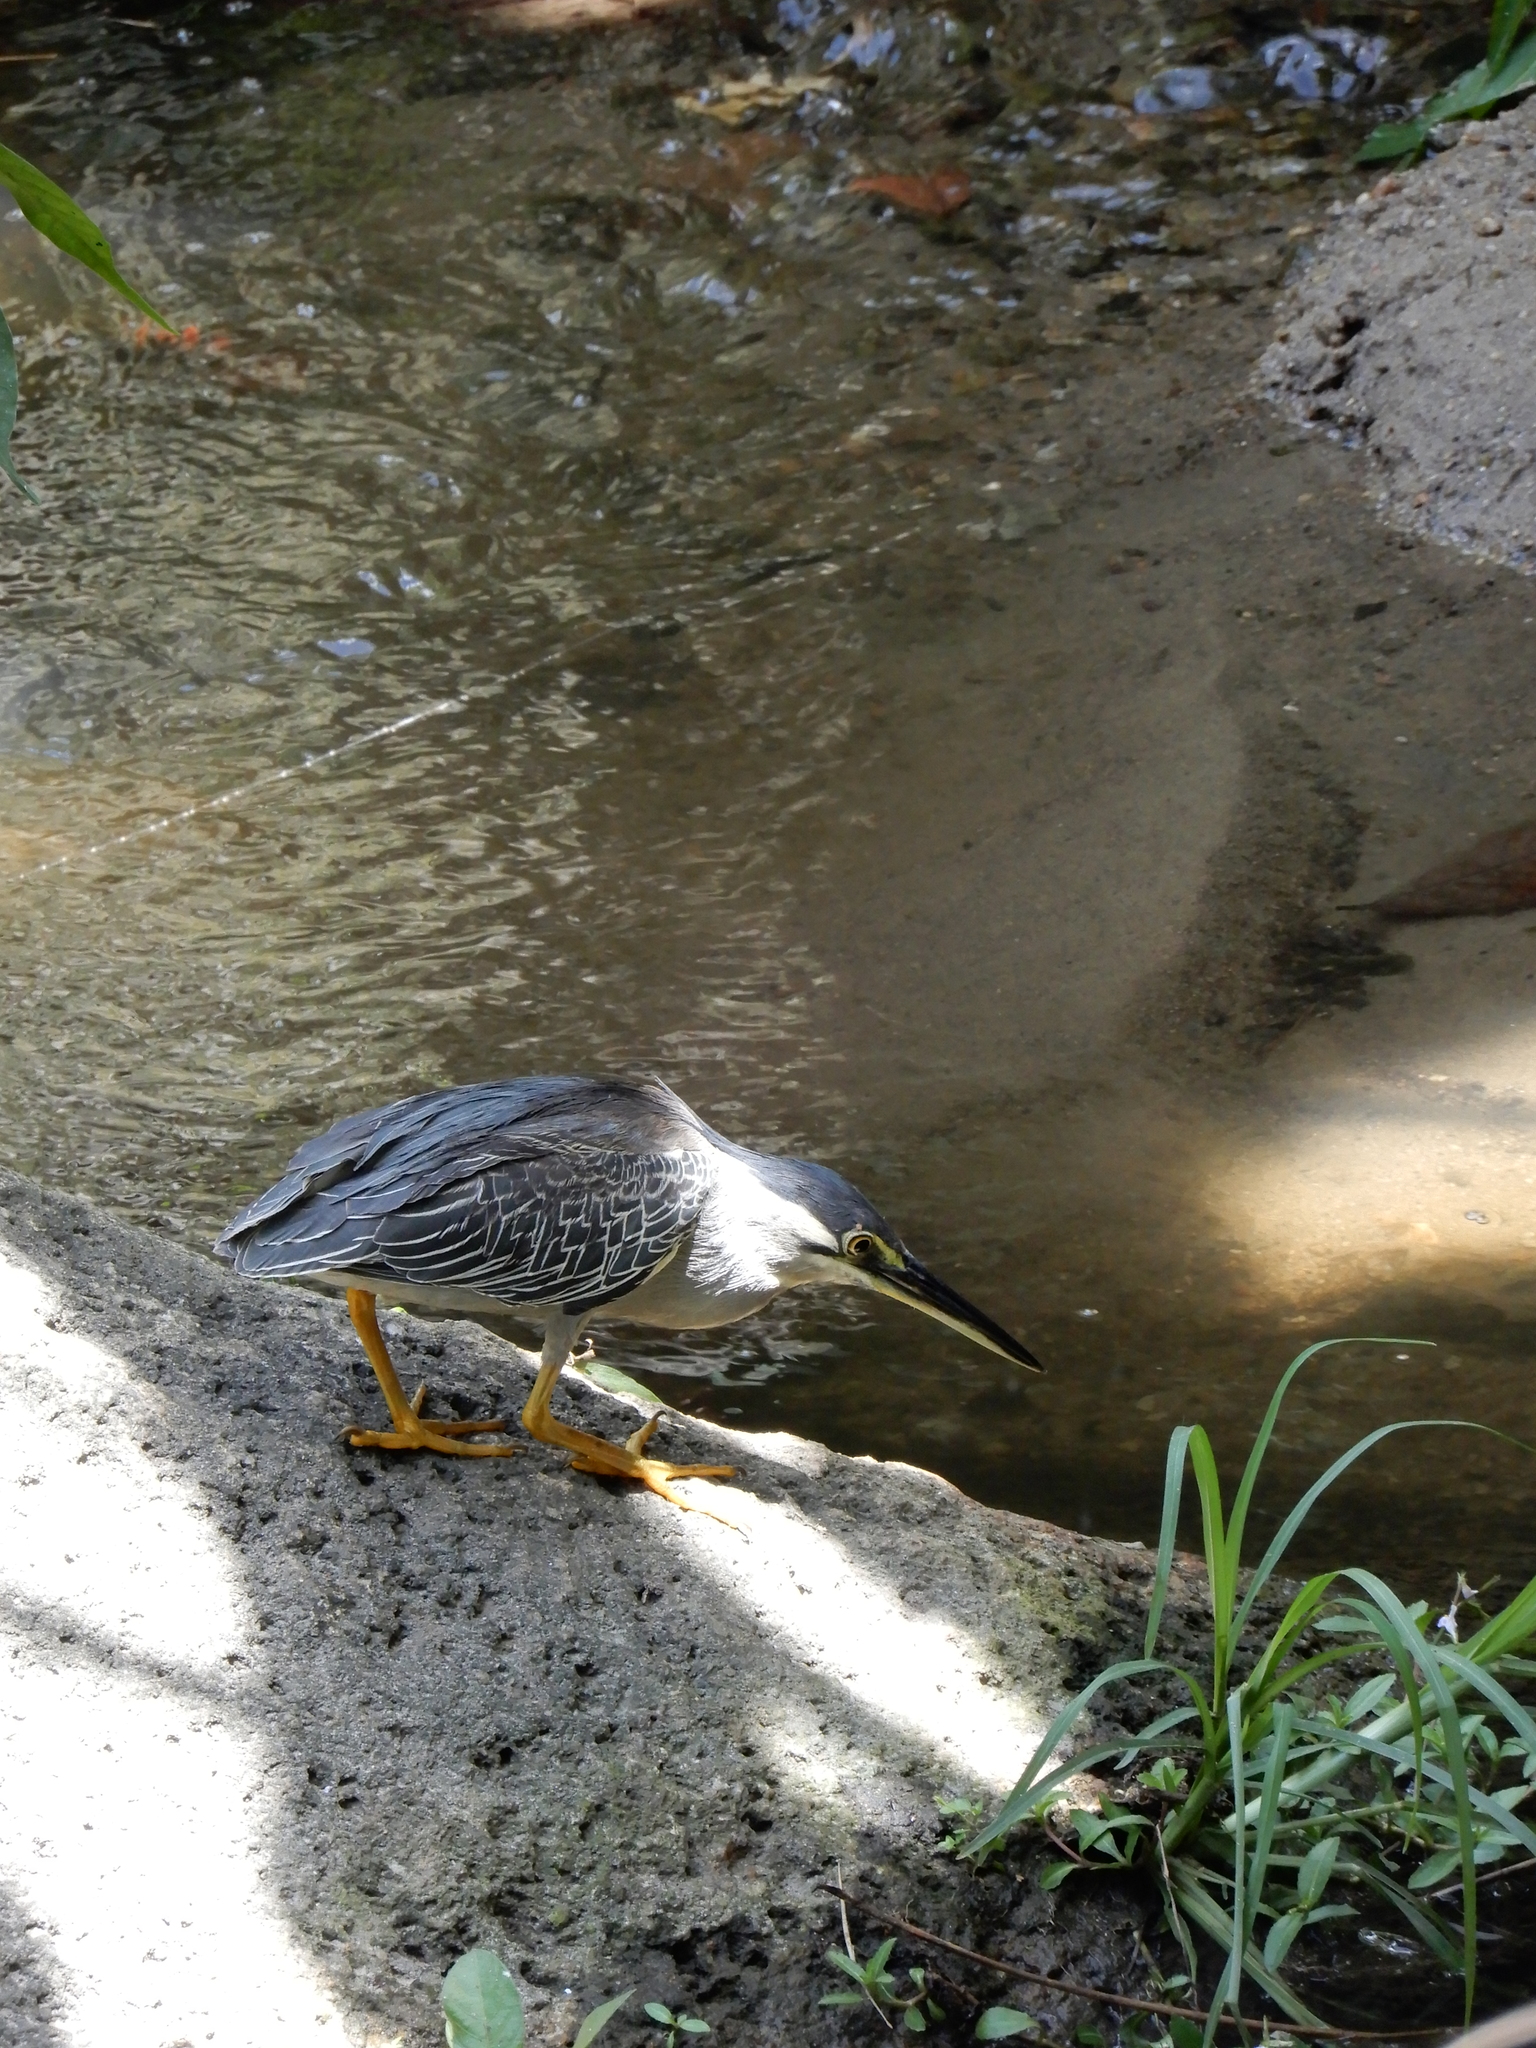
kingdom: Animalia
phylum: Chordata
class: Aves
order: Pelecaniformes
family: Ardeidae
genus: Butorides
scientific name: Butorides striata
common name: Striated heron
